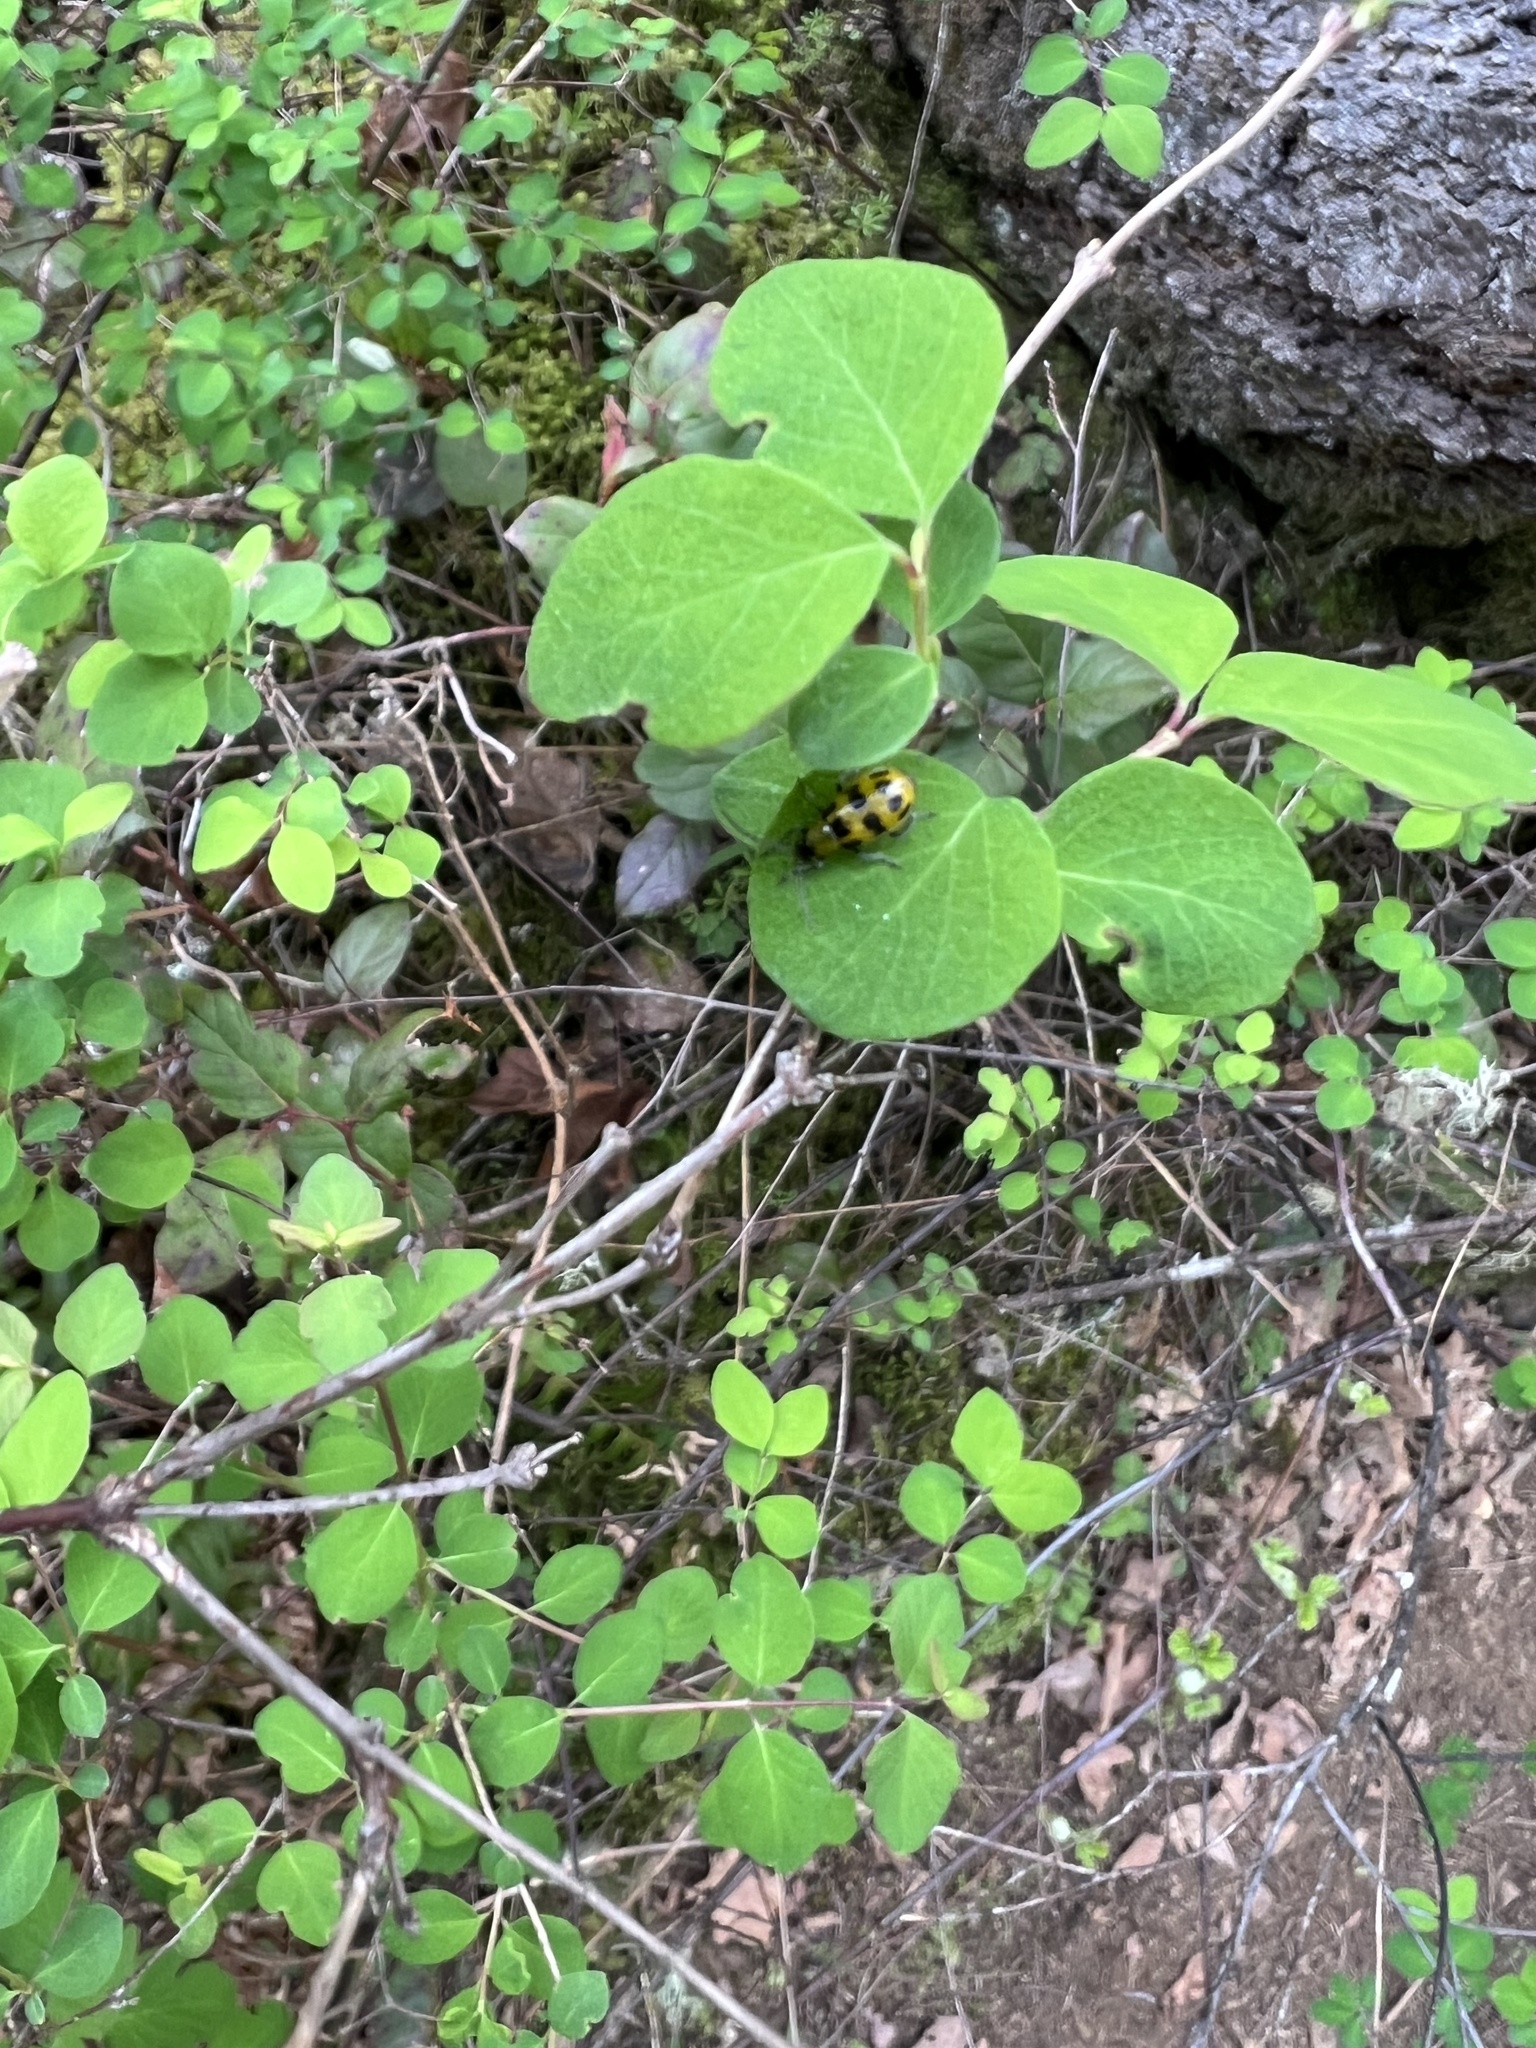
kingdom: Animalia
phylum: Arthropoda
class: Insecta
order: Coleoptera
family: Chrysomelidae
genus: Diabrotica
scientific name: Diabrotica undecimpunctata
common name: Spotted cucumber beetle
